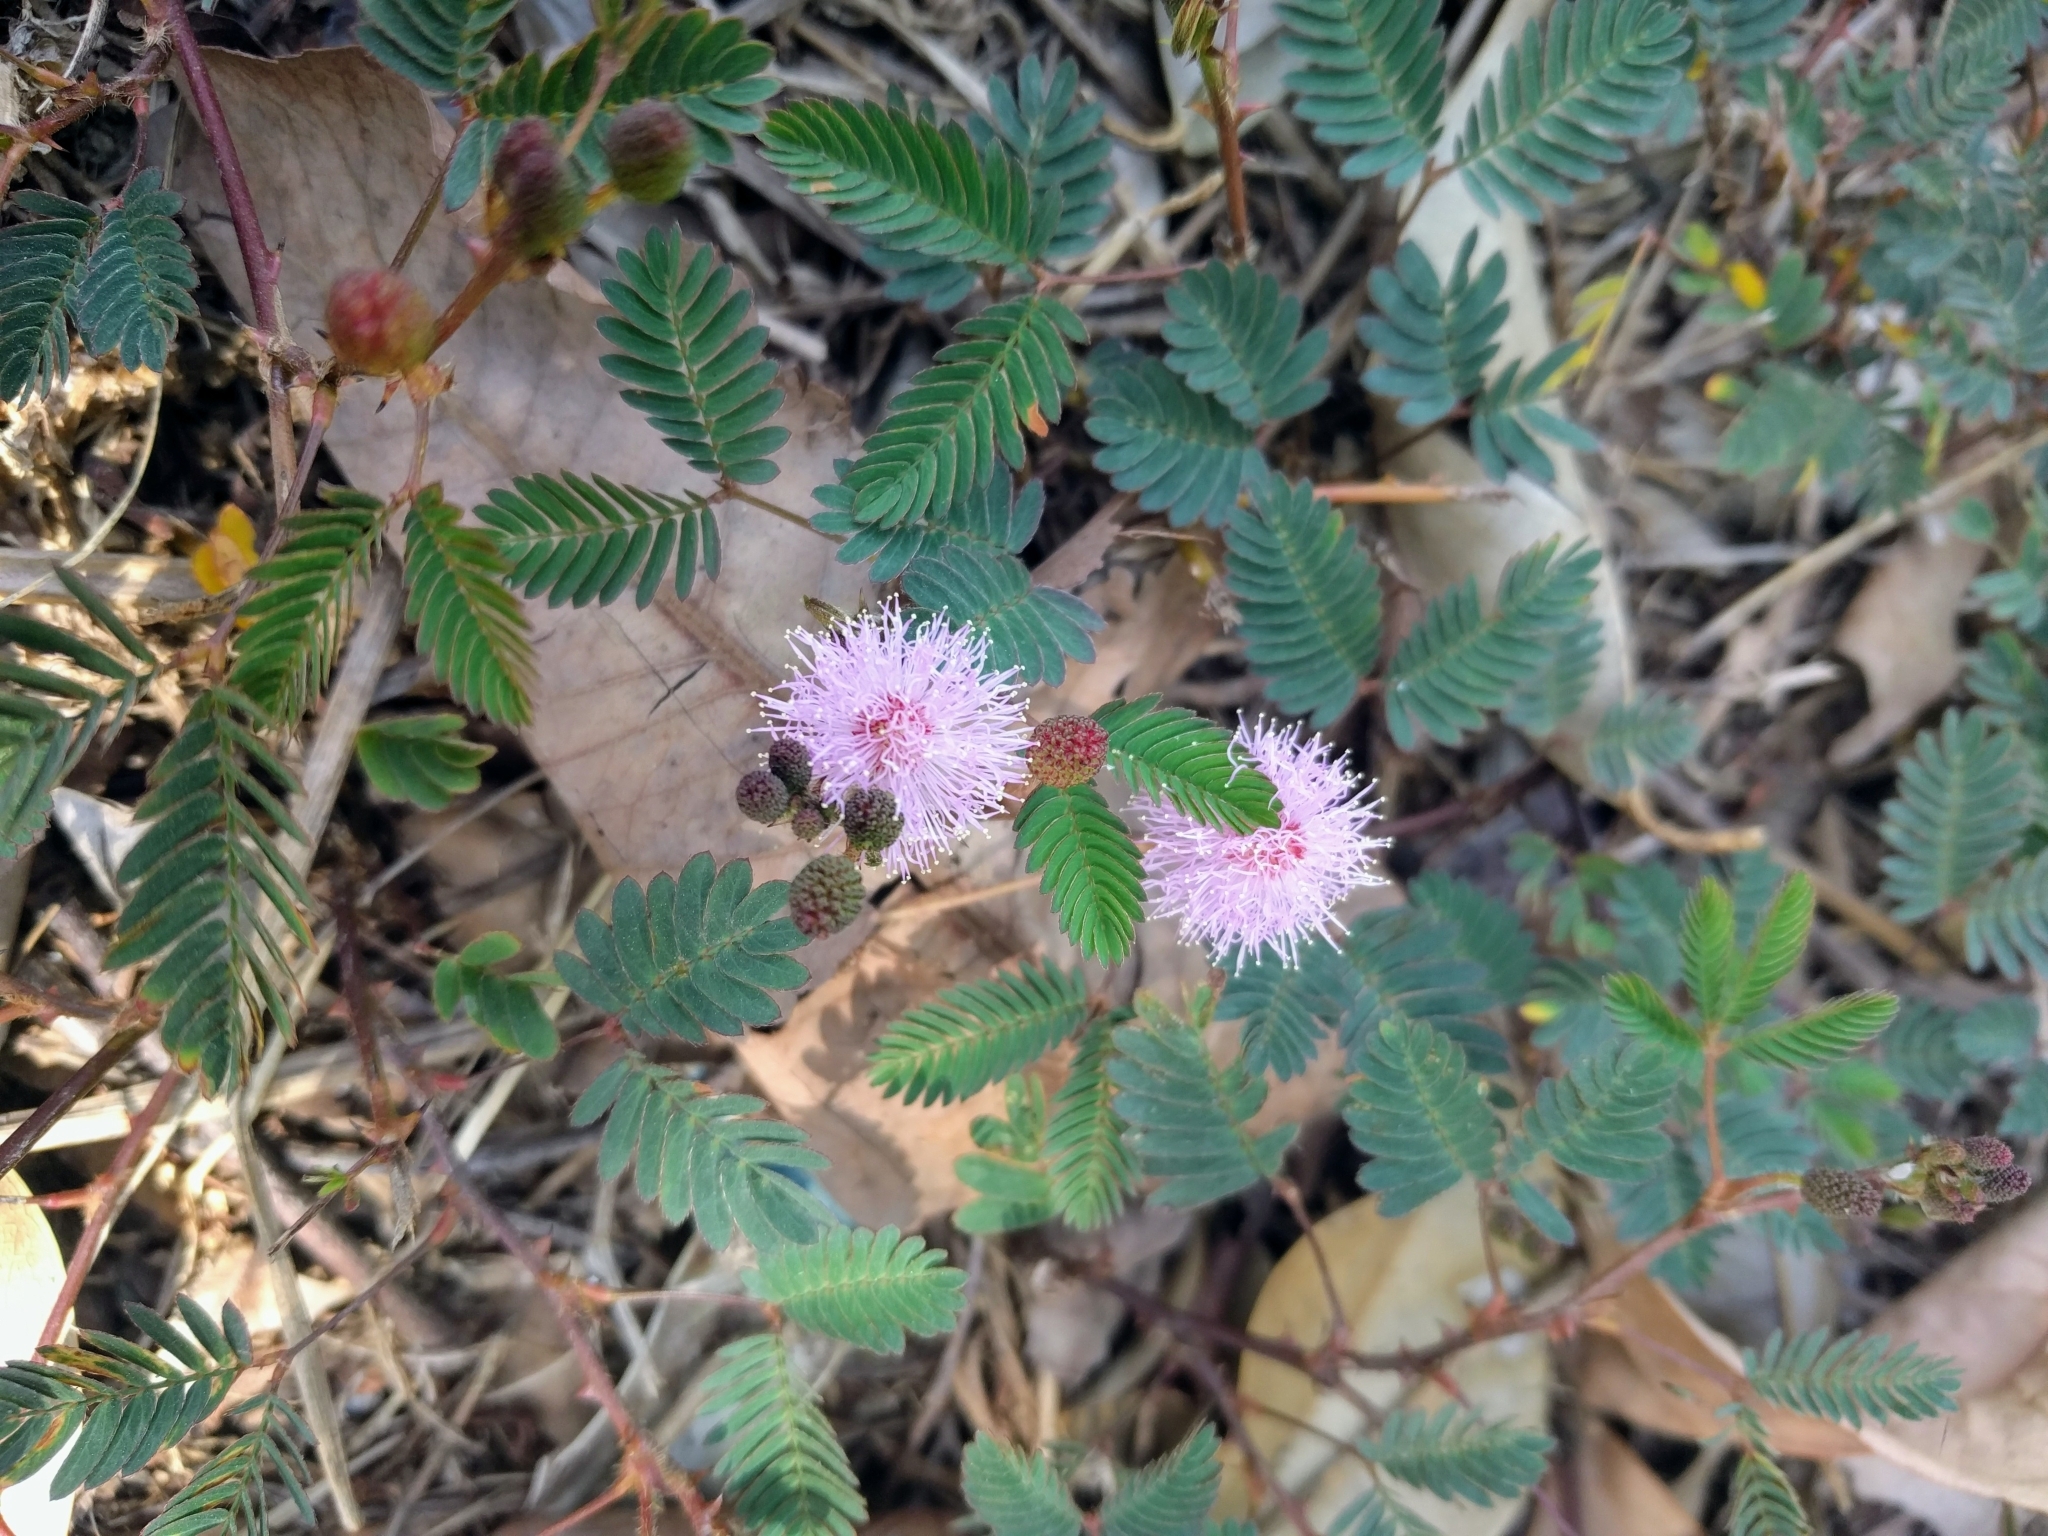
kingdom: Plantae
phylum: Tracheophyta
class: Magnoliopsida
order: Fabales
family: Fabaceae
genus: Mimosa
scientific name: Mimosa pudica
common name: Sensitive plant
